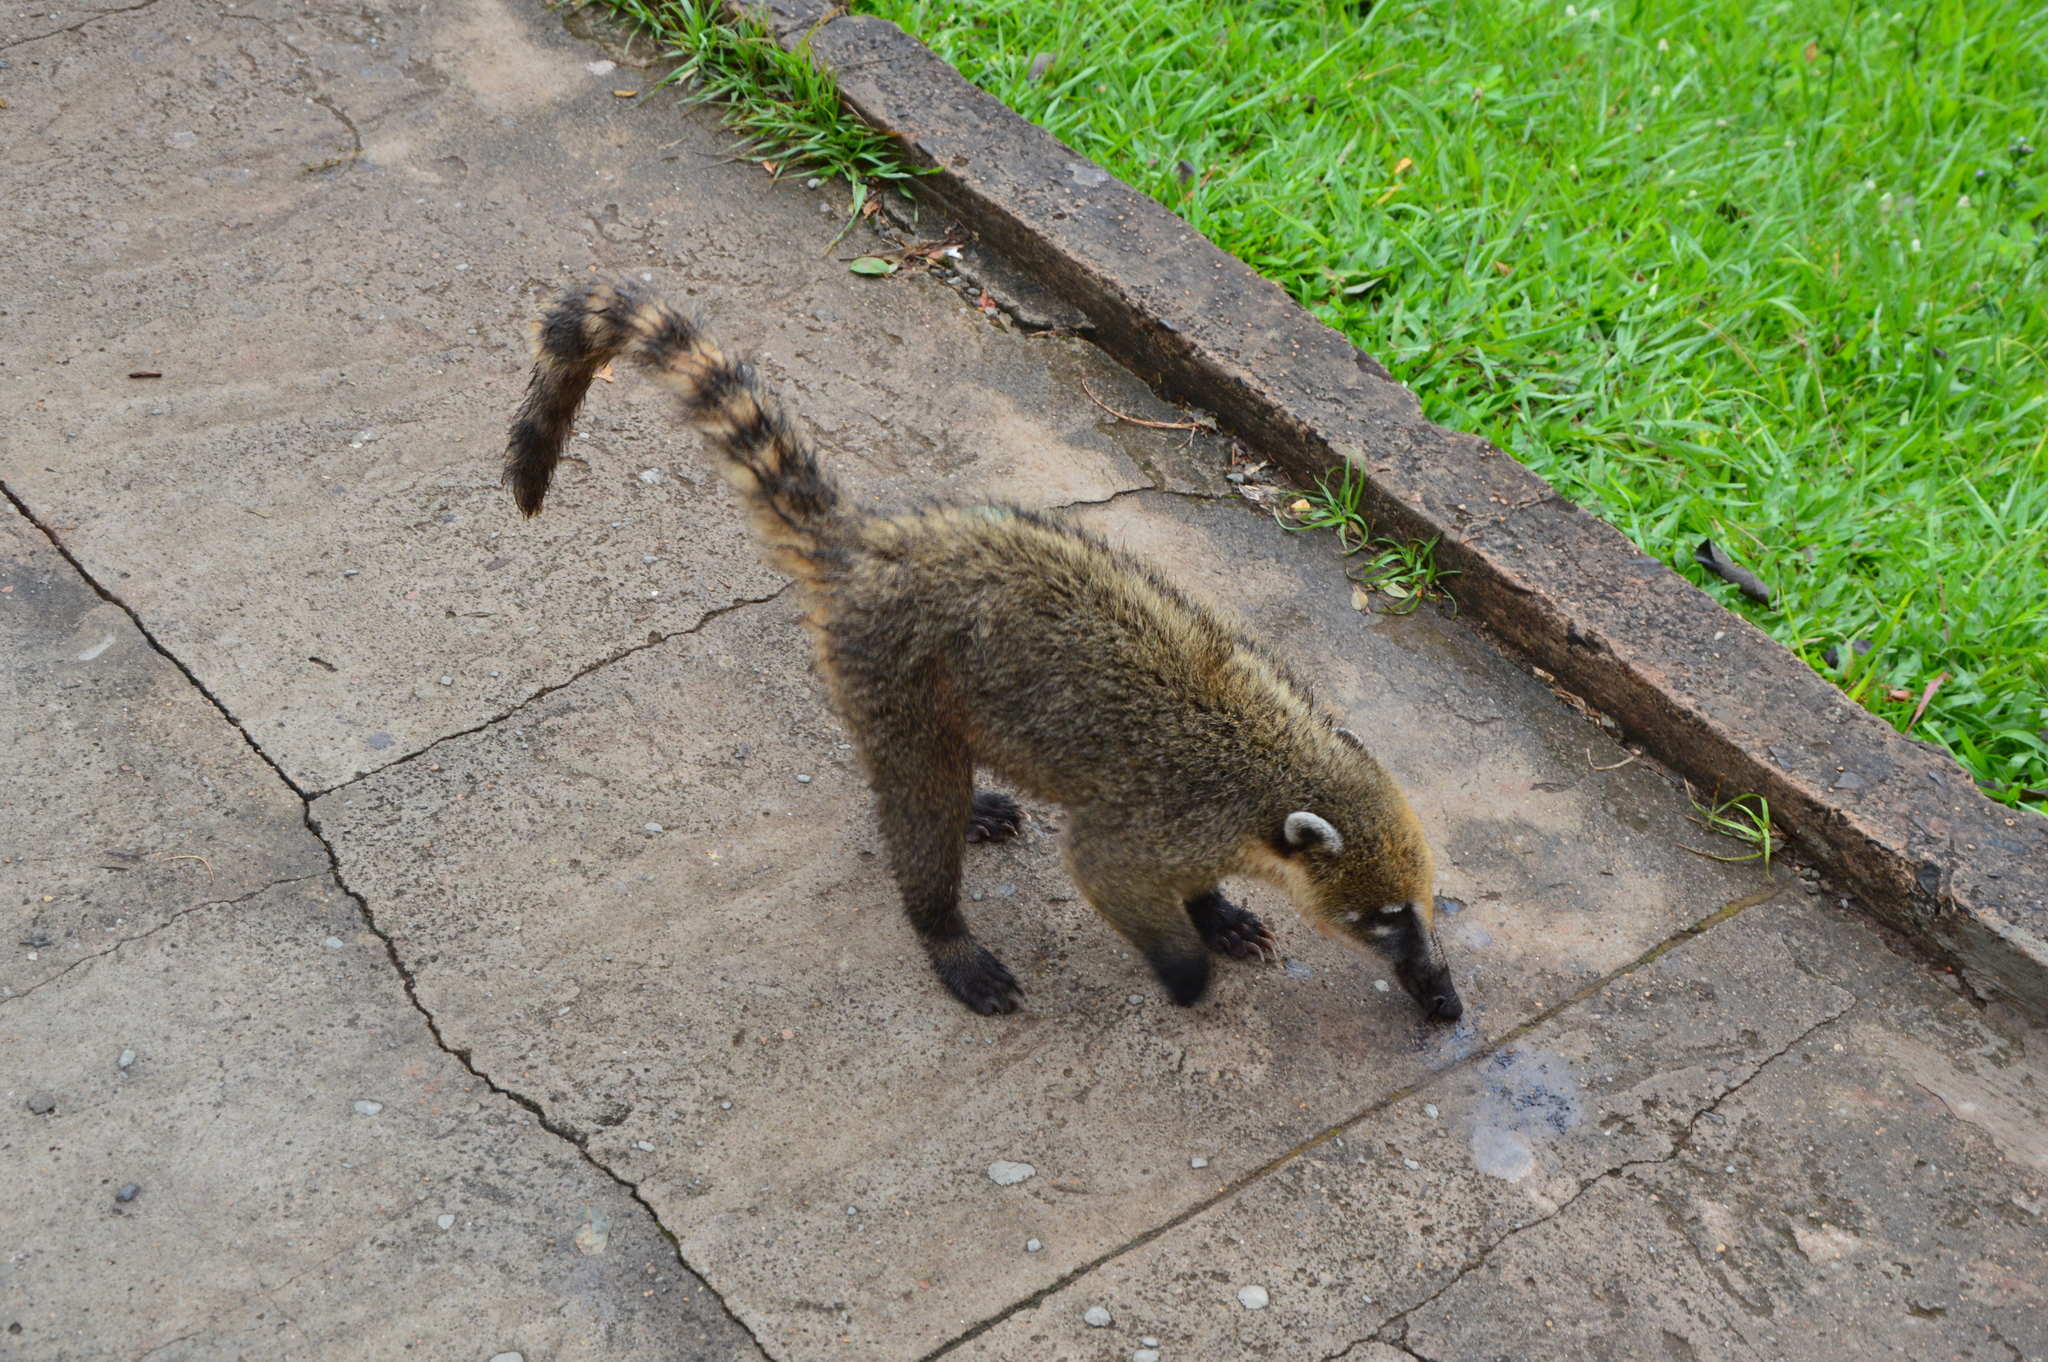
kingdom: Animalia
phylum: Chordata
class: Mammalia
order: Carnivora
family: Procyonidae
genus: Nasua
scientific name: Nasua nasua
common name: South american coati
